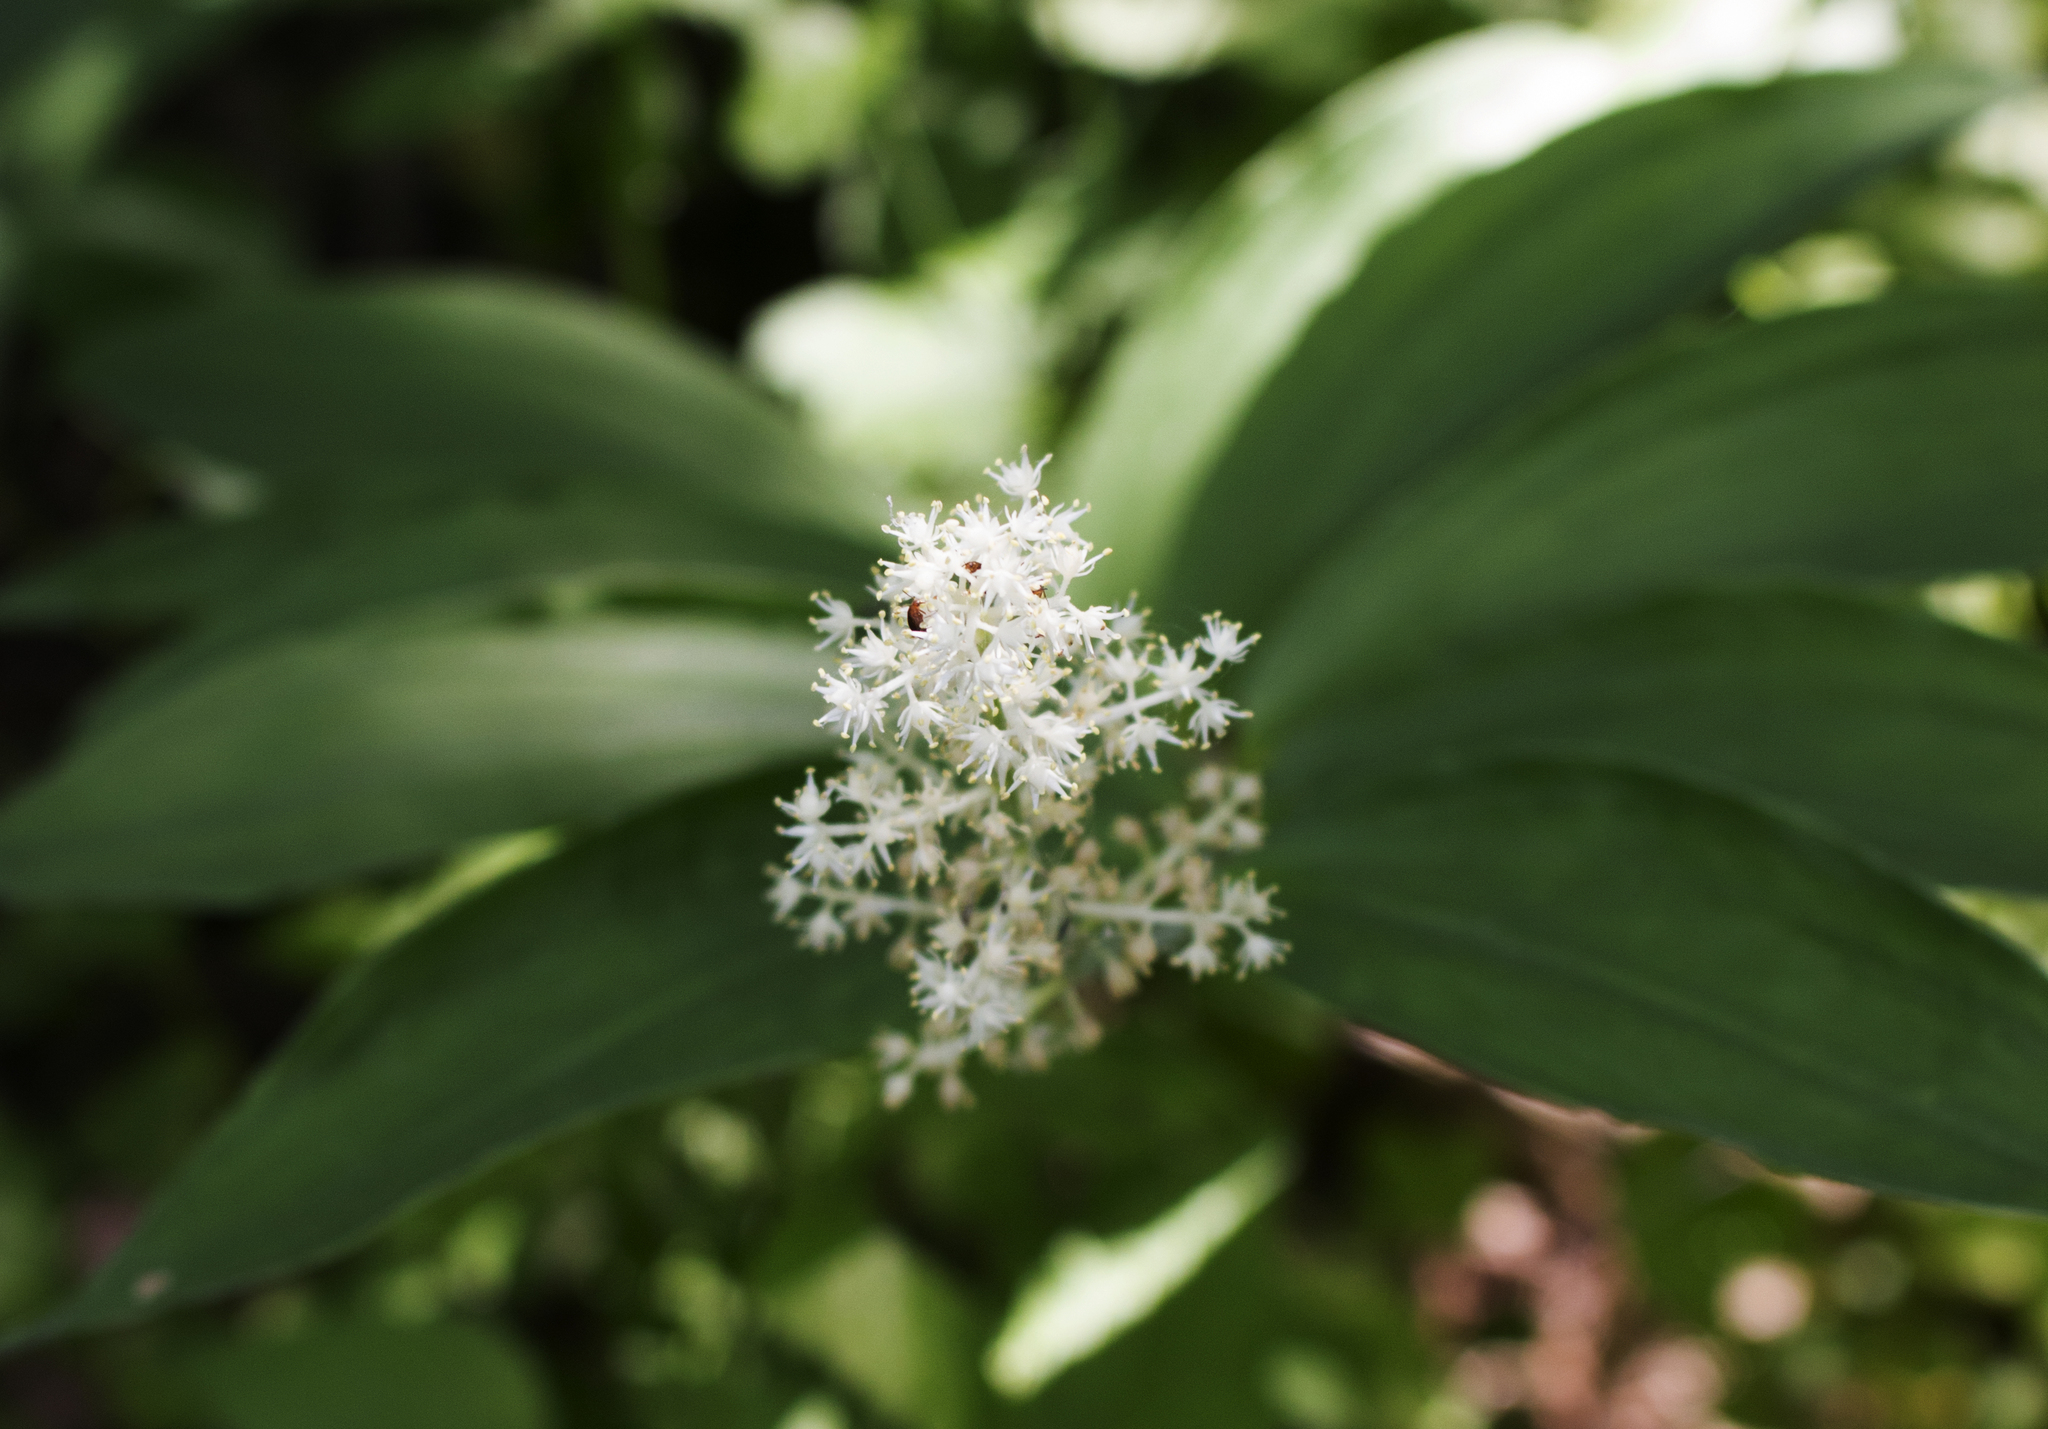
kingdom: Plantae
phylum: Tracheophyta
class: Liliopsida
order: Asparagales
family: Asparagaceae
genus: Maianthemum
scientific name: Maianthemum racemosum
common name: False spikenard
